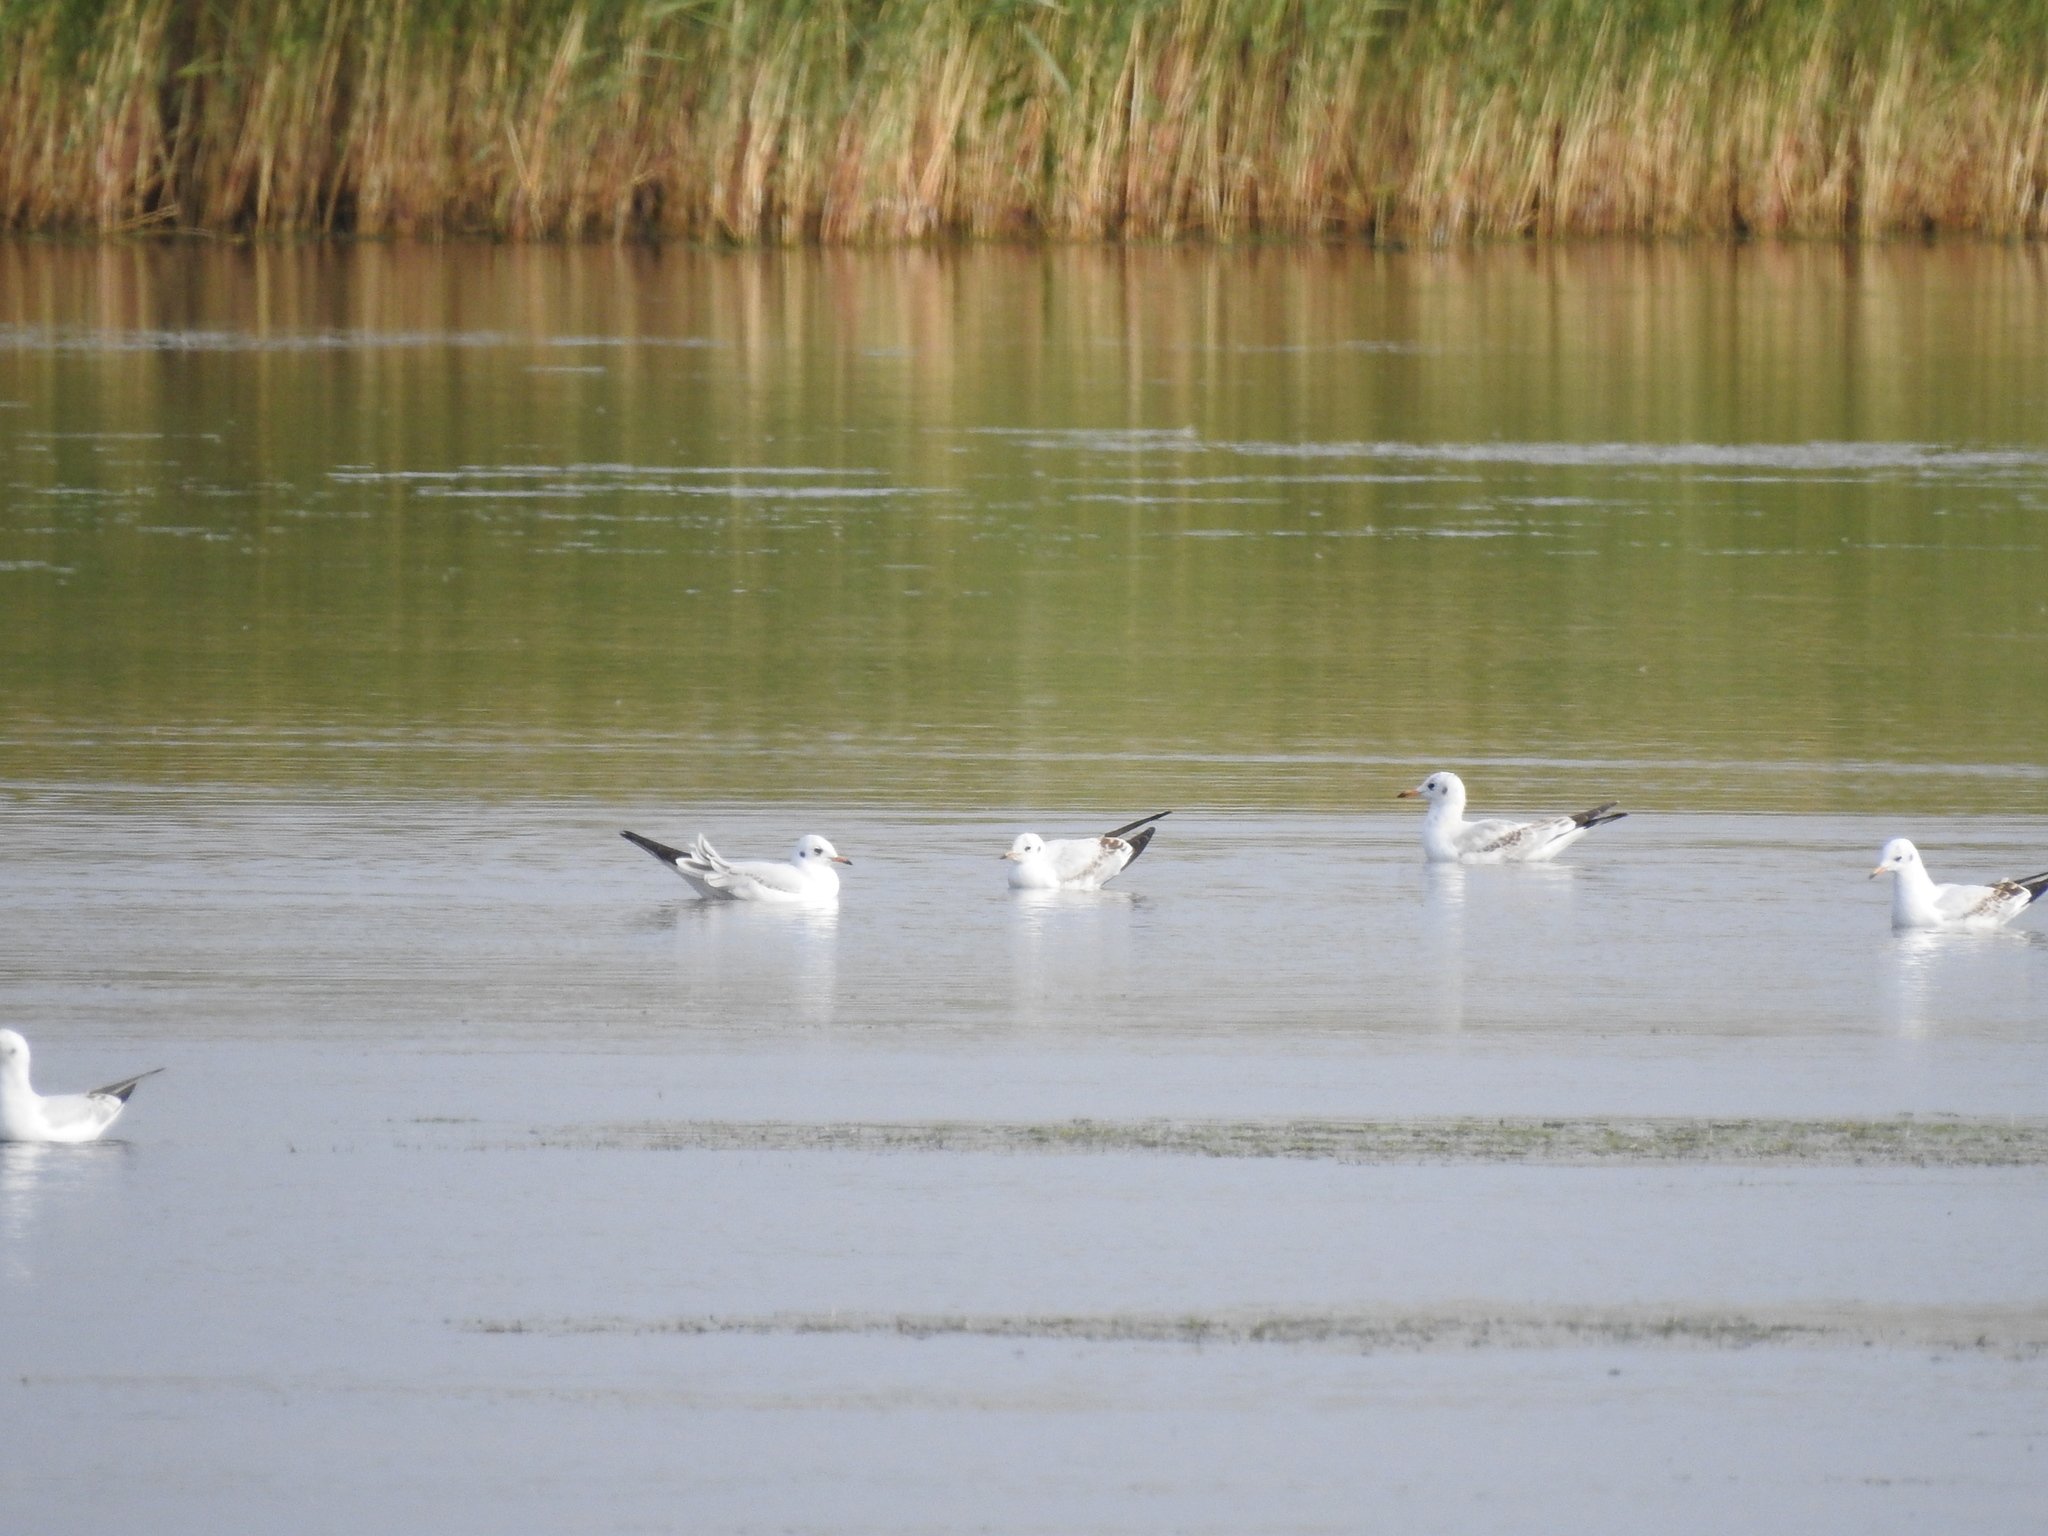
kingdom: Animalia
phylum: Chordata
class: Aves
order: Charadriiformes
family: Laridae
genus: Chroicocephalus
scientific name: Chroicocephalus ridibundus
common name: Black-headed gull
